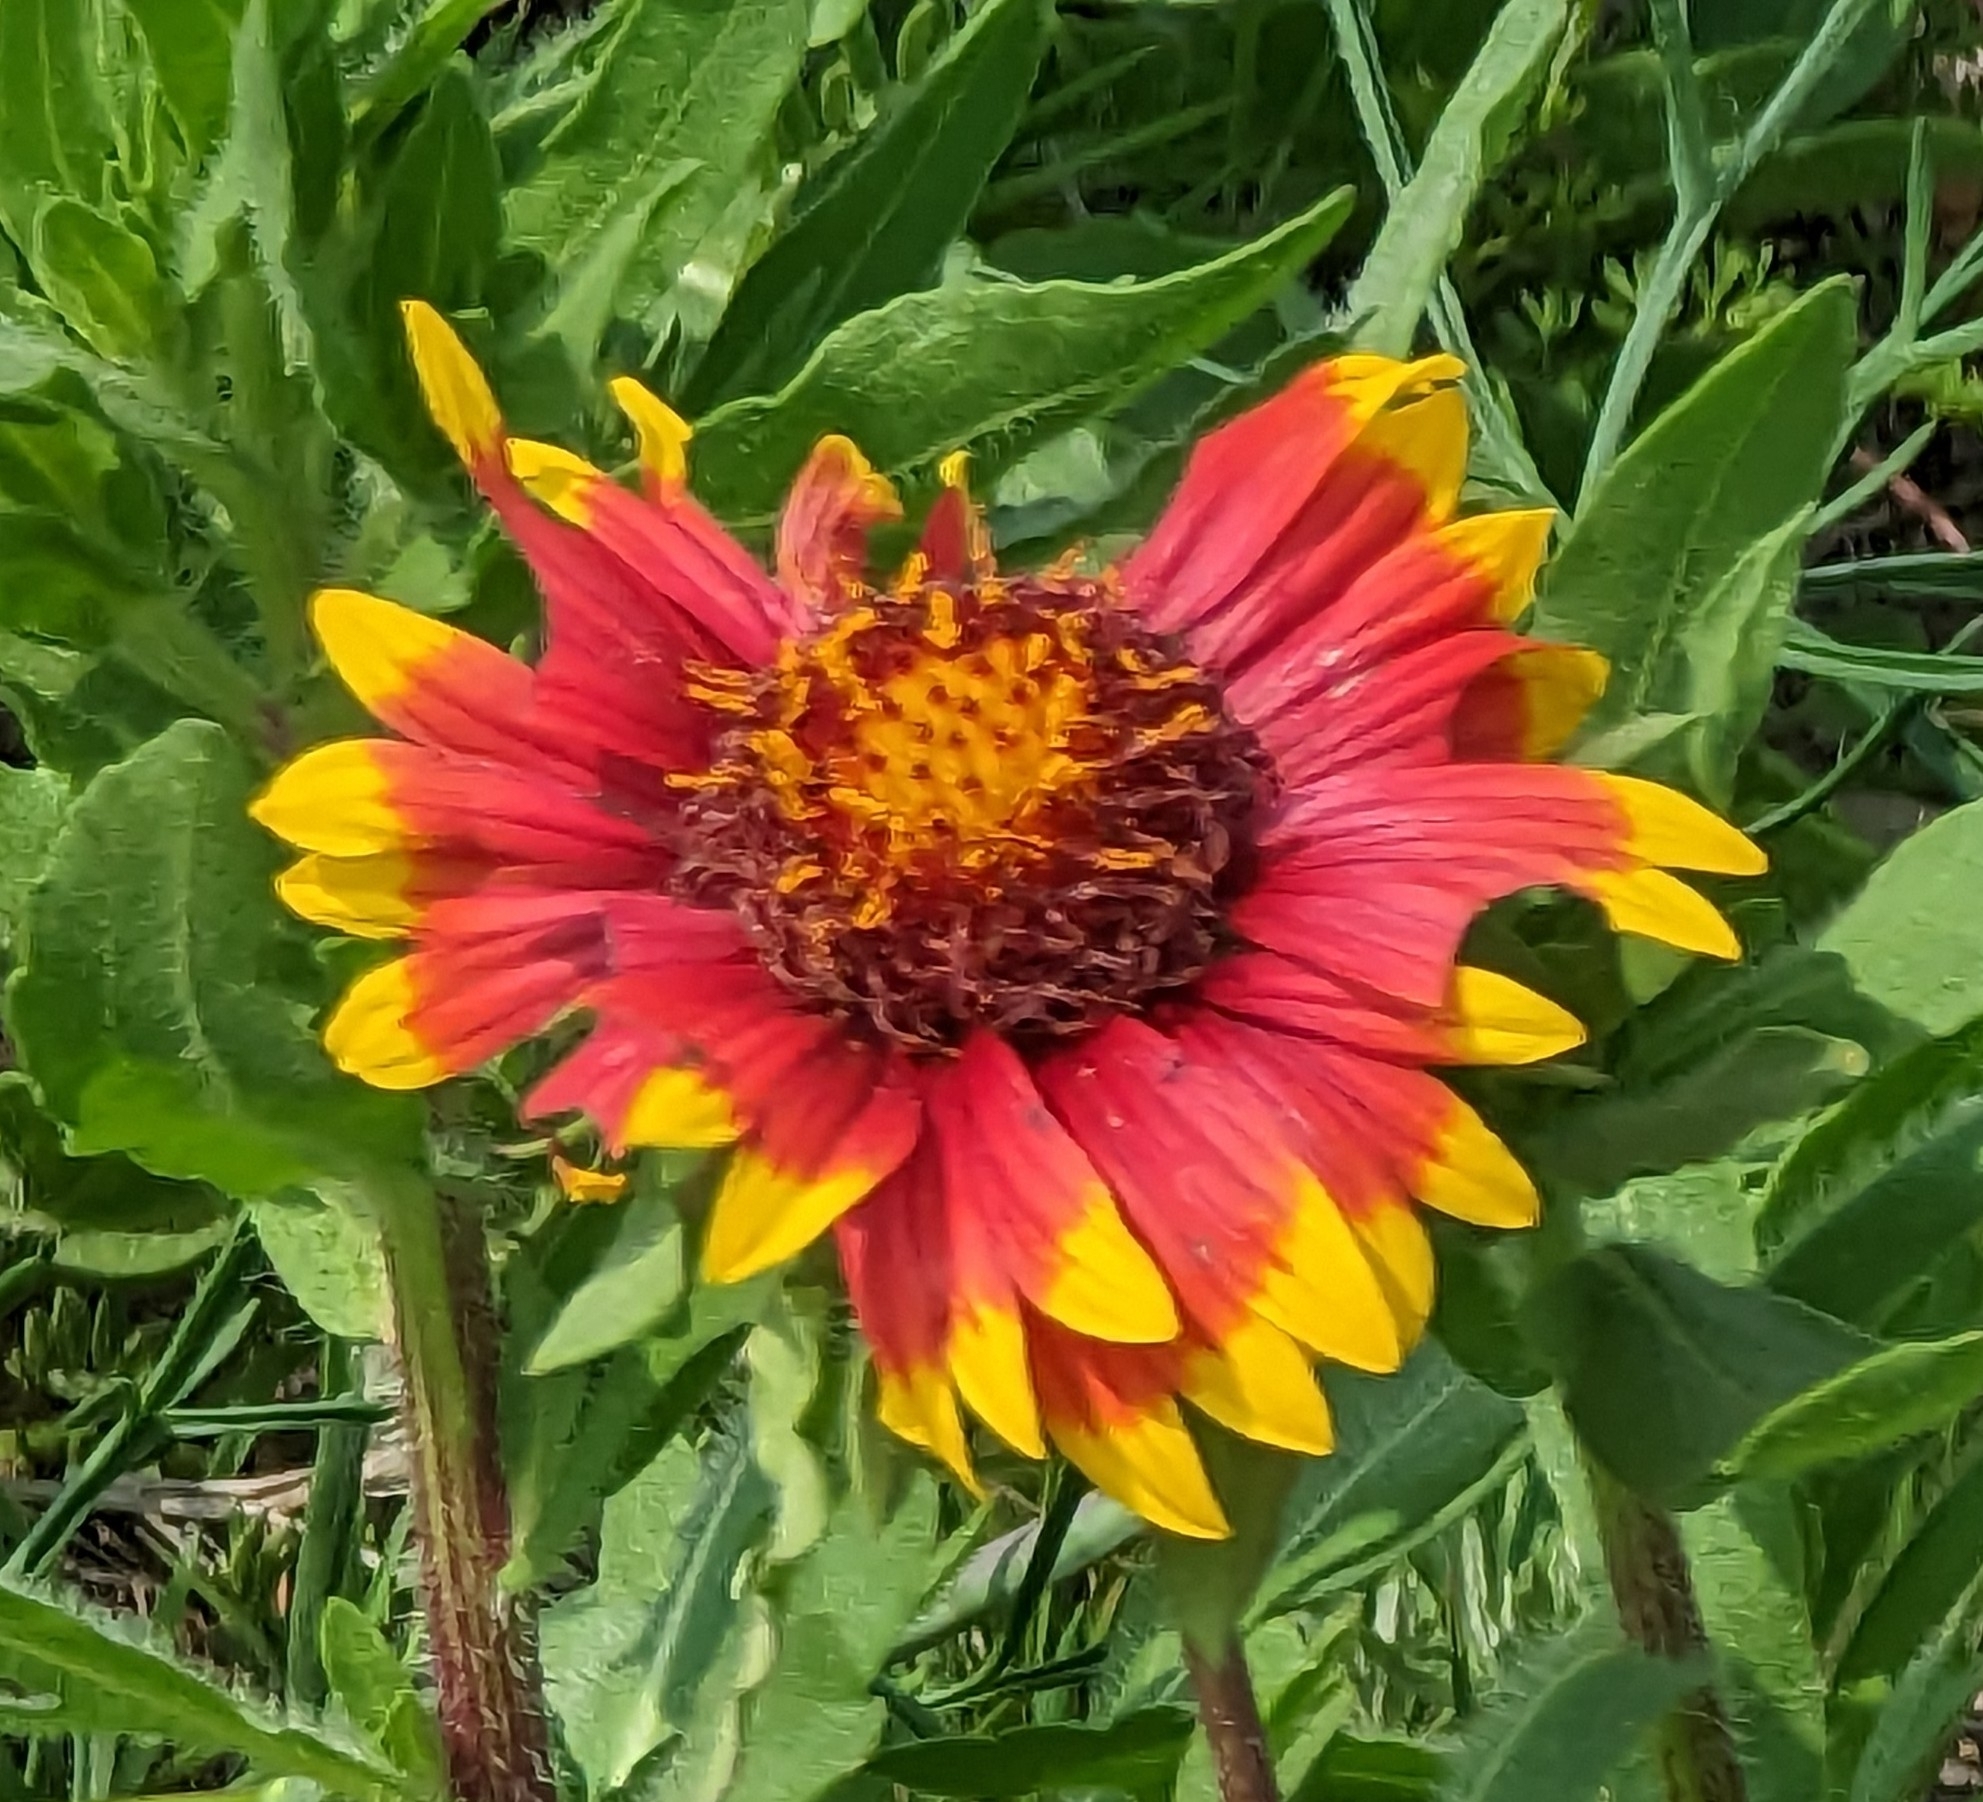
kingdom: Plantae
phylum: Tracheophyta
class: Magnoliopsida
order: Asterales
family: Asteraceae
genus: Gaillardia
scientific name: Gaillardia pulchella
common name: Firewheel
